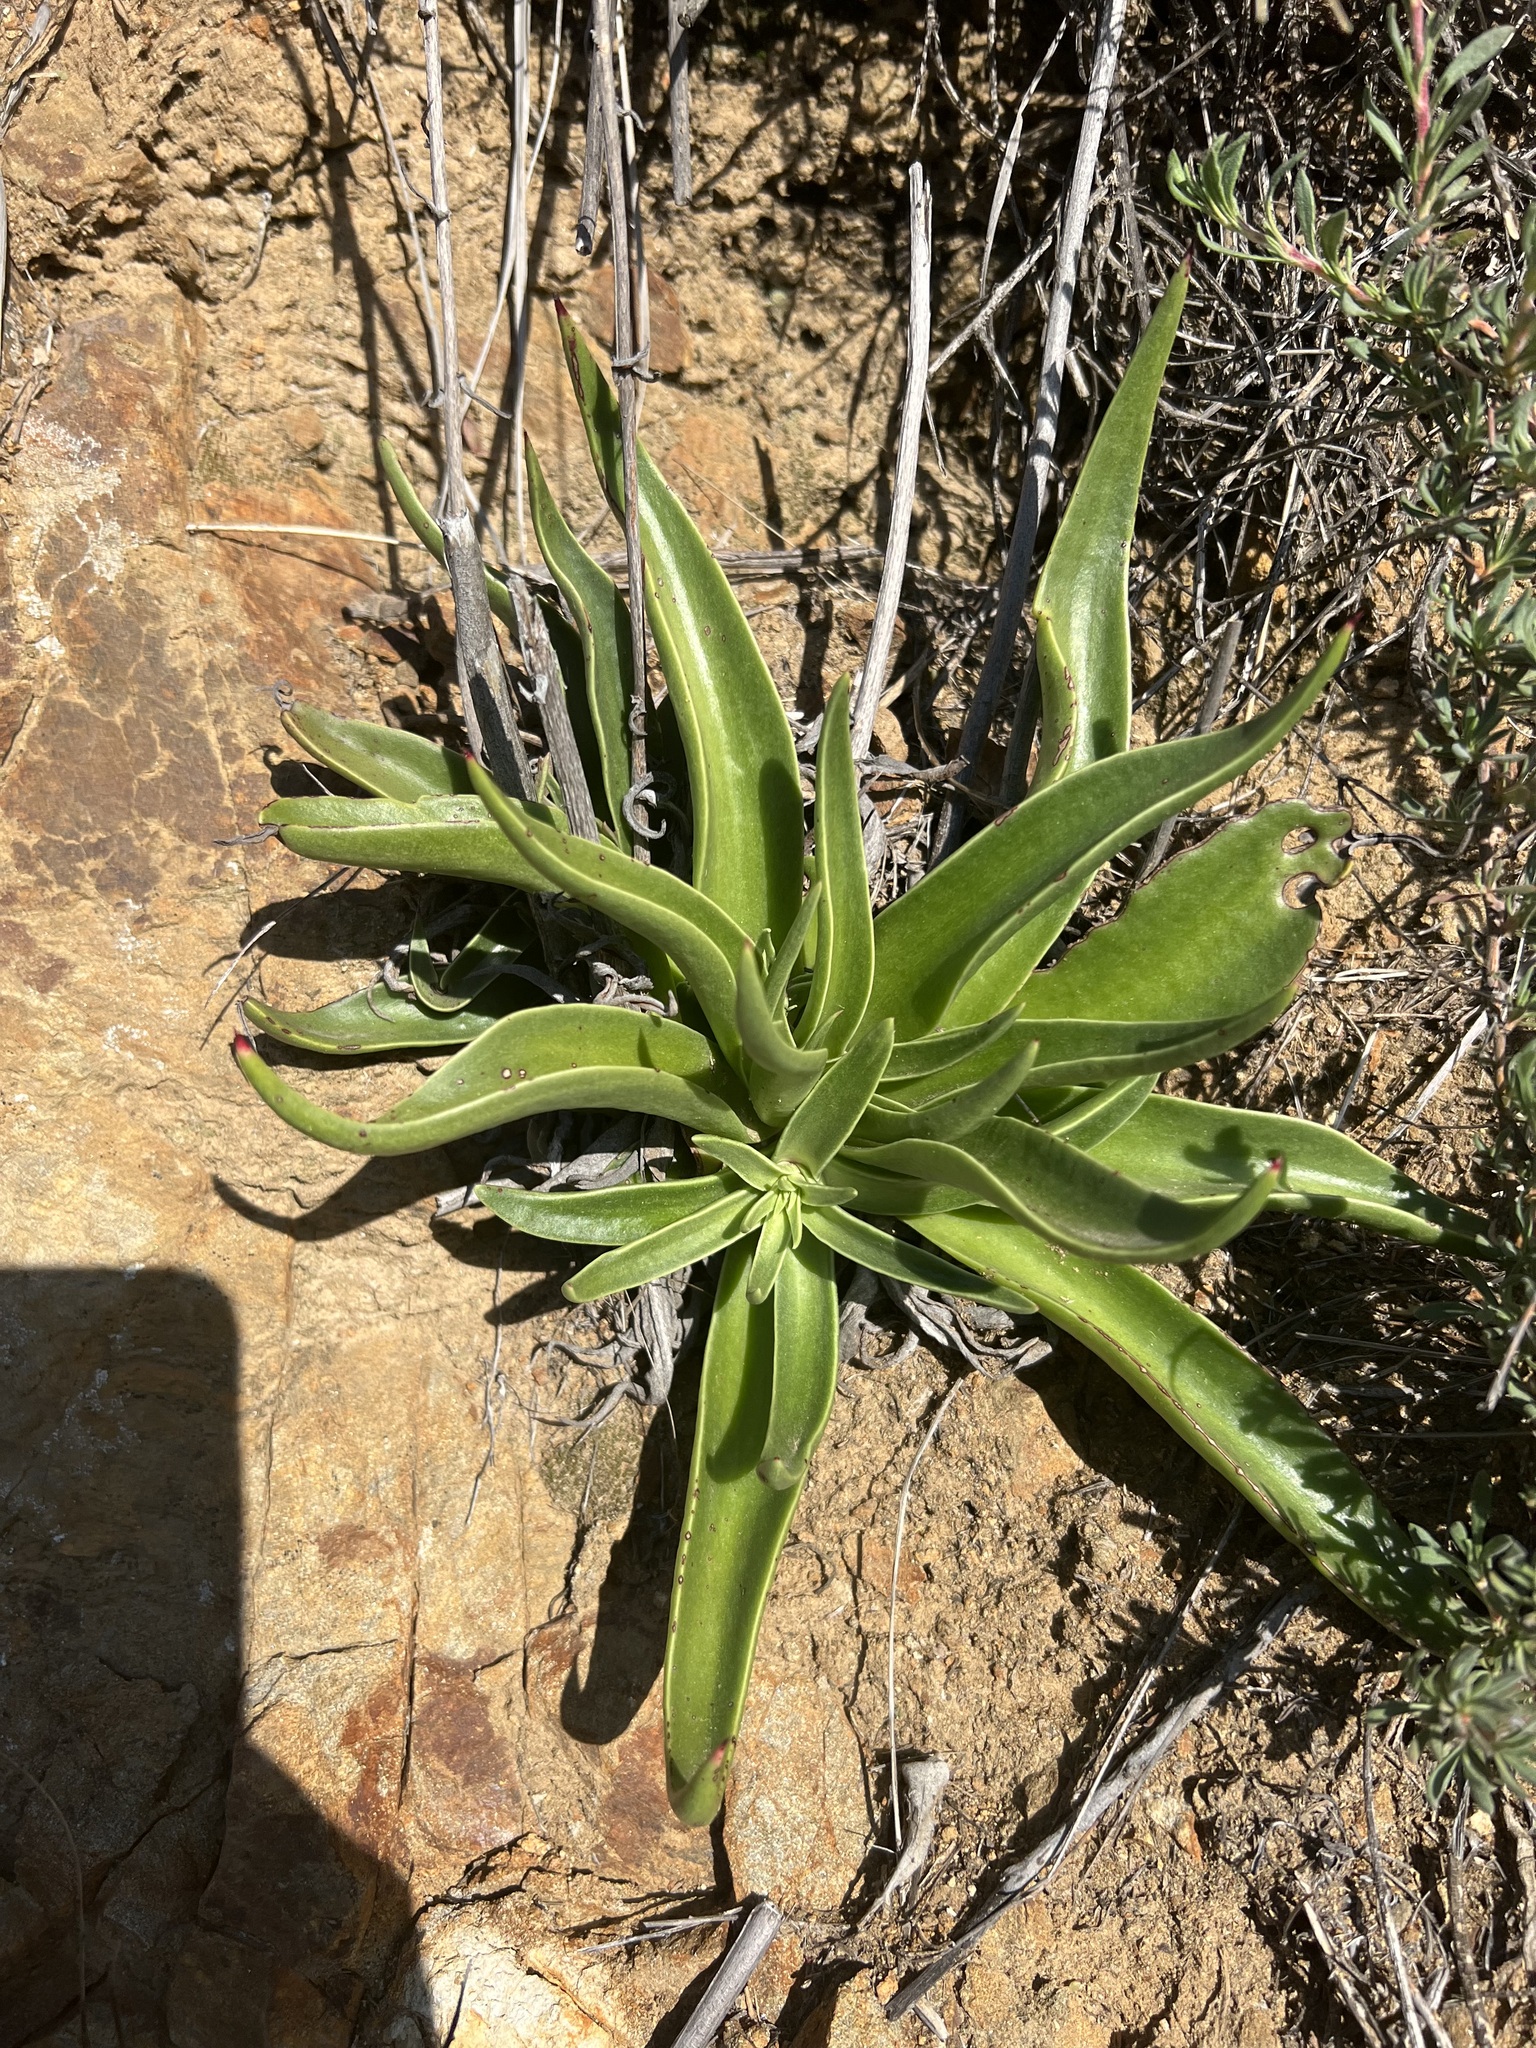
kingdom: Plantae
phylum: Tracheophyta
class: Magnoliopsida
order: Saxifragales
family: Crassulaceae
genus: Dudleya
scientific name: Dudleya lanceolata
